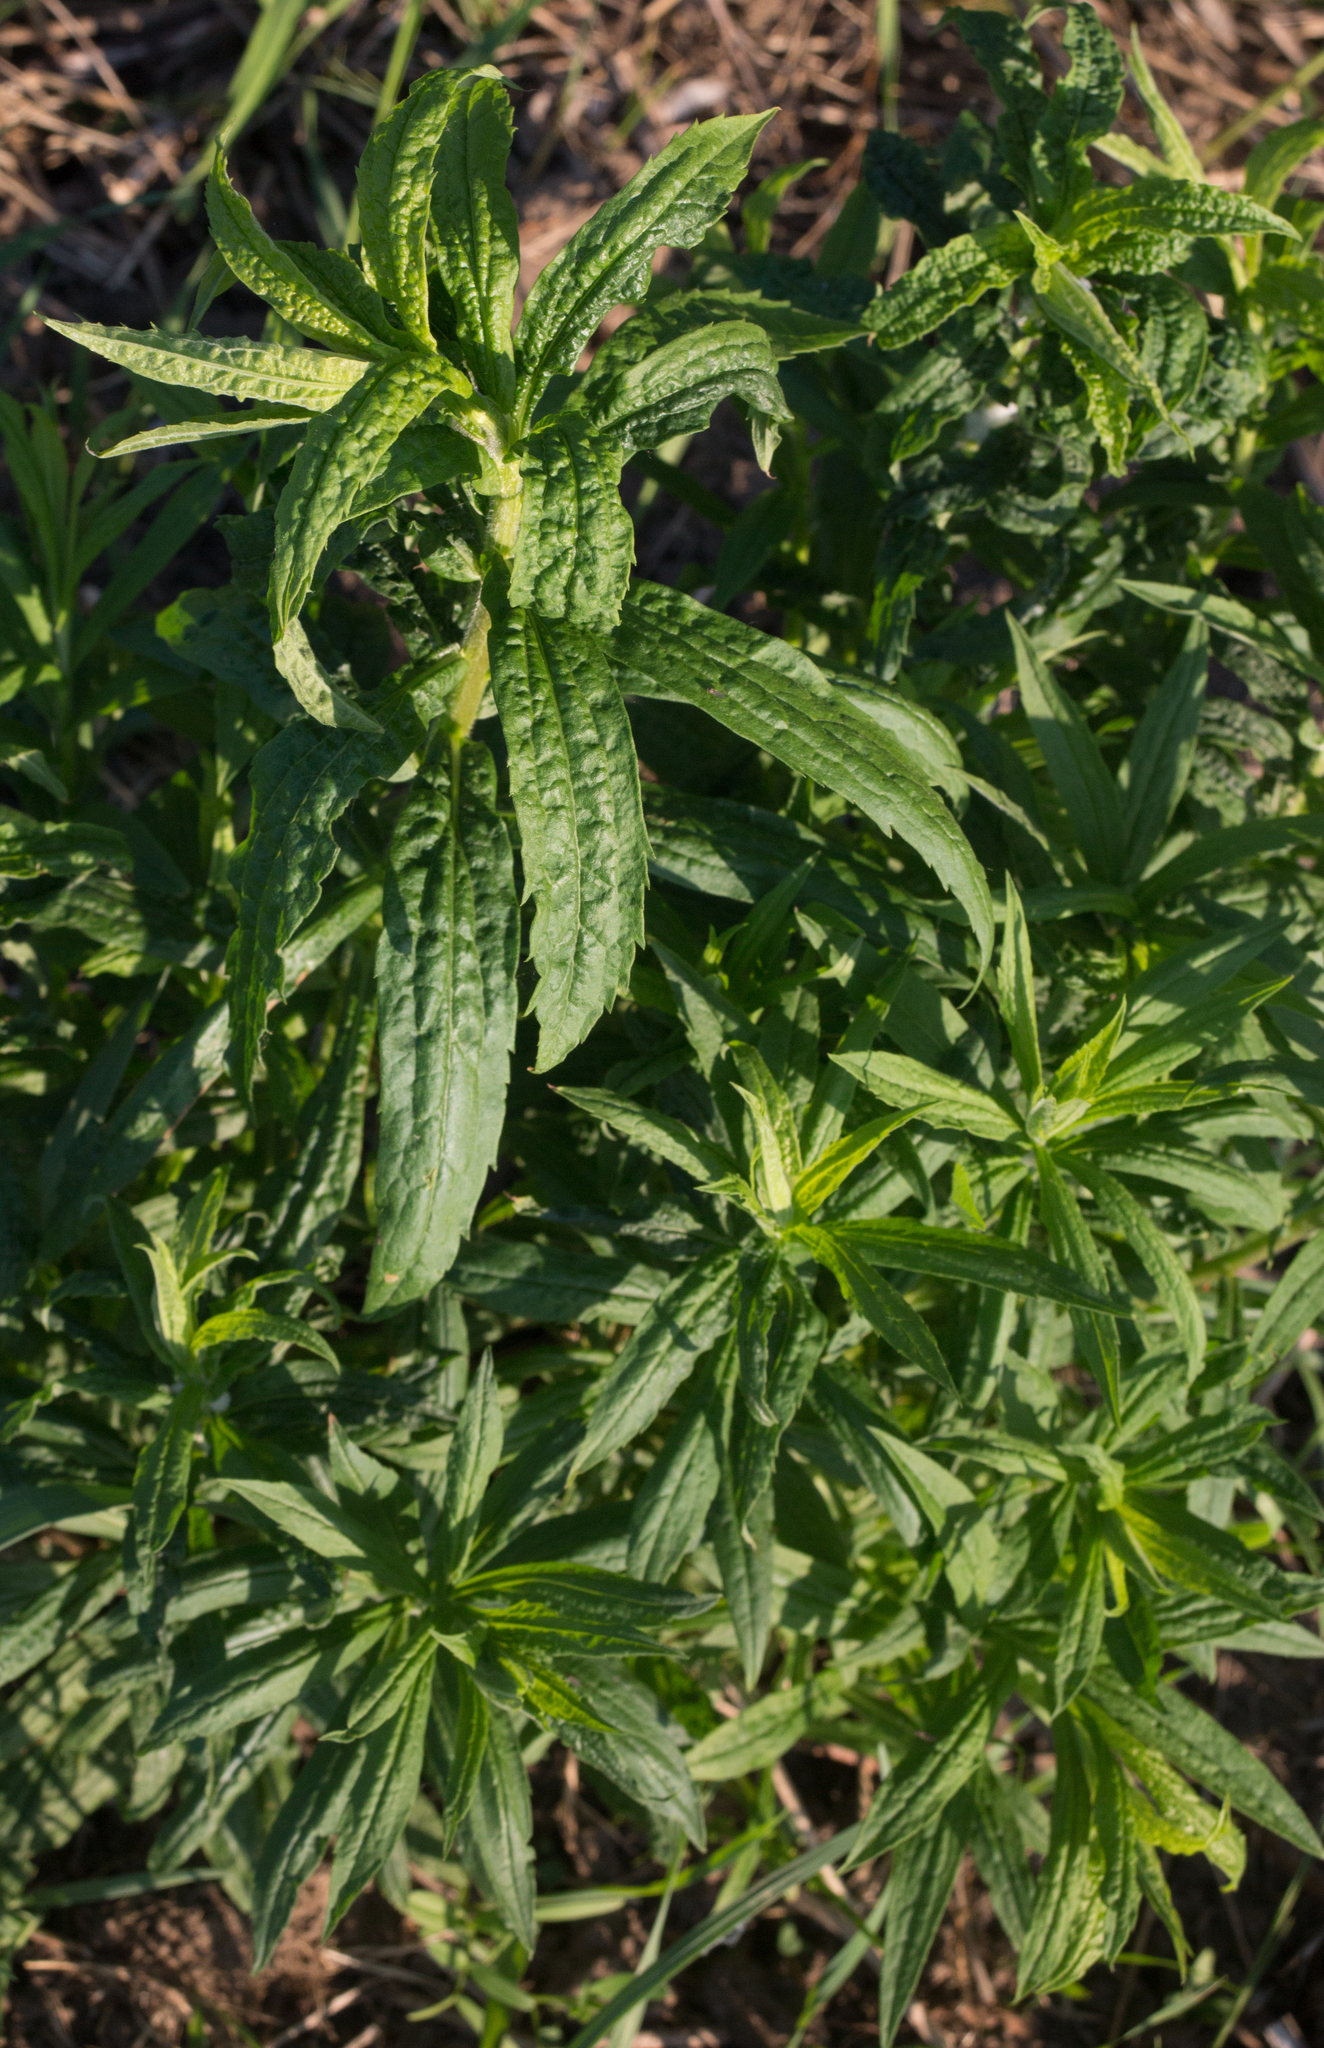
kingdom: Plantae
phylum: Tracheophyta
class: Magnoliopsida
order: Asterales
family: Asteraceae
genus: Solidago
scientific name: Solidago canadensis
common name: Canada goldenrod
